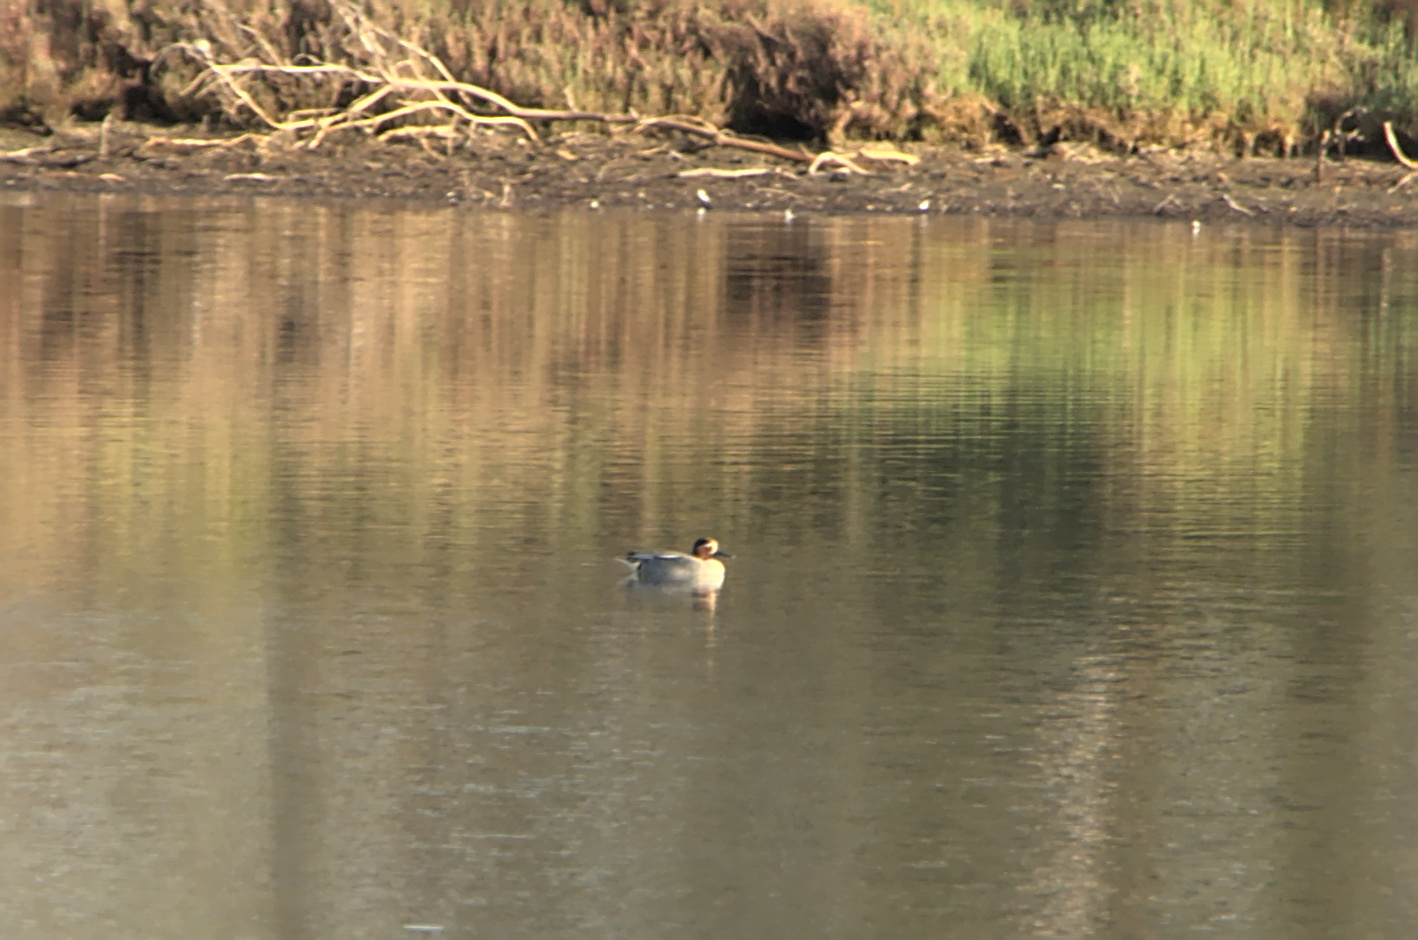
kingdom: Animalia
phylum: Chordata
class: Aves
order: Anseriformes
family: Anatidae
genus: Anas
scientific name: Anas crecca
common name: Eurasian teal
